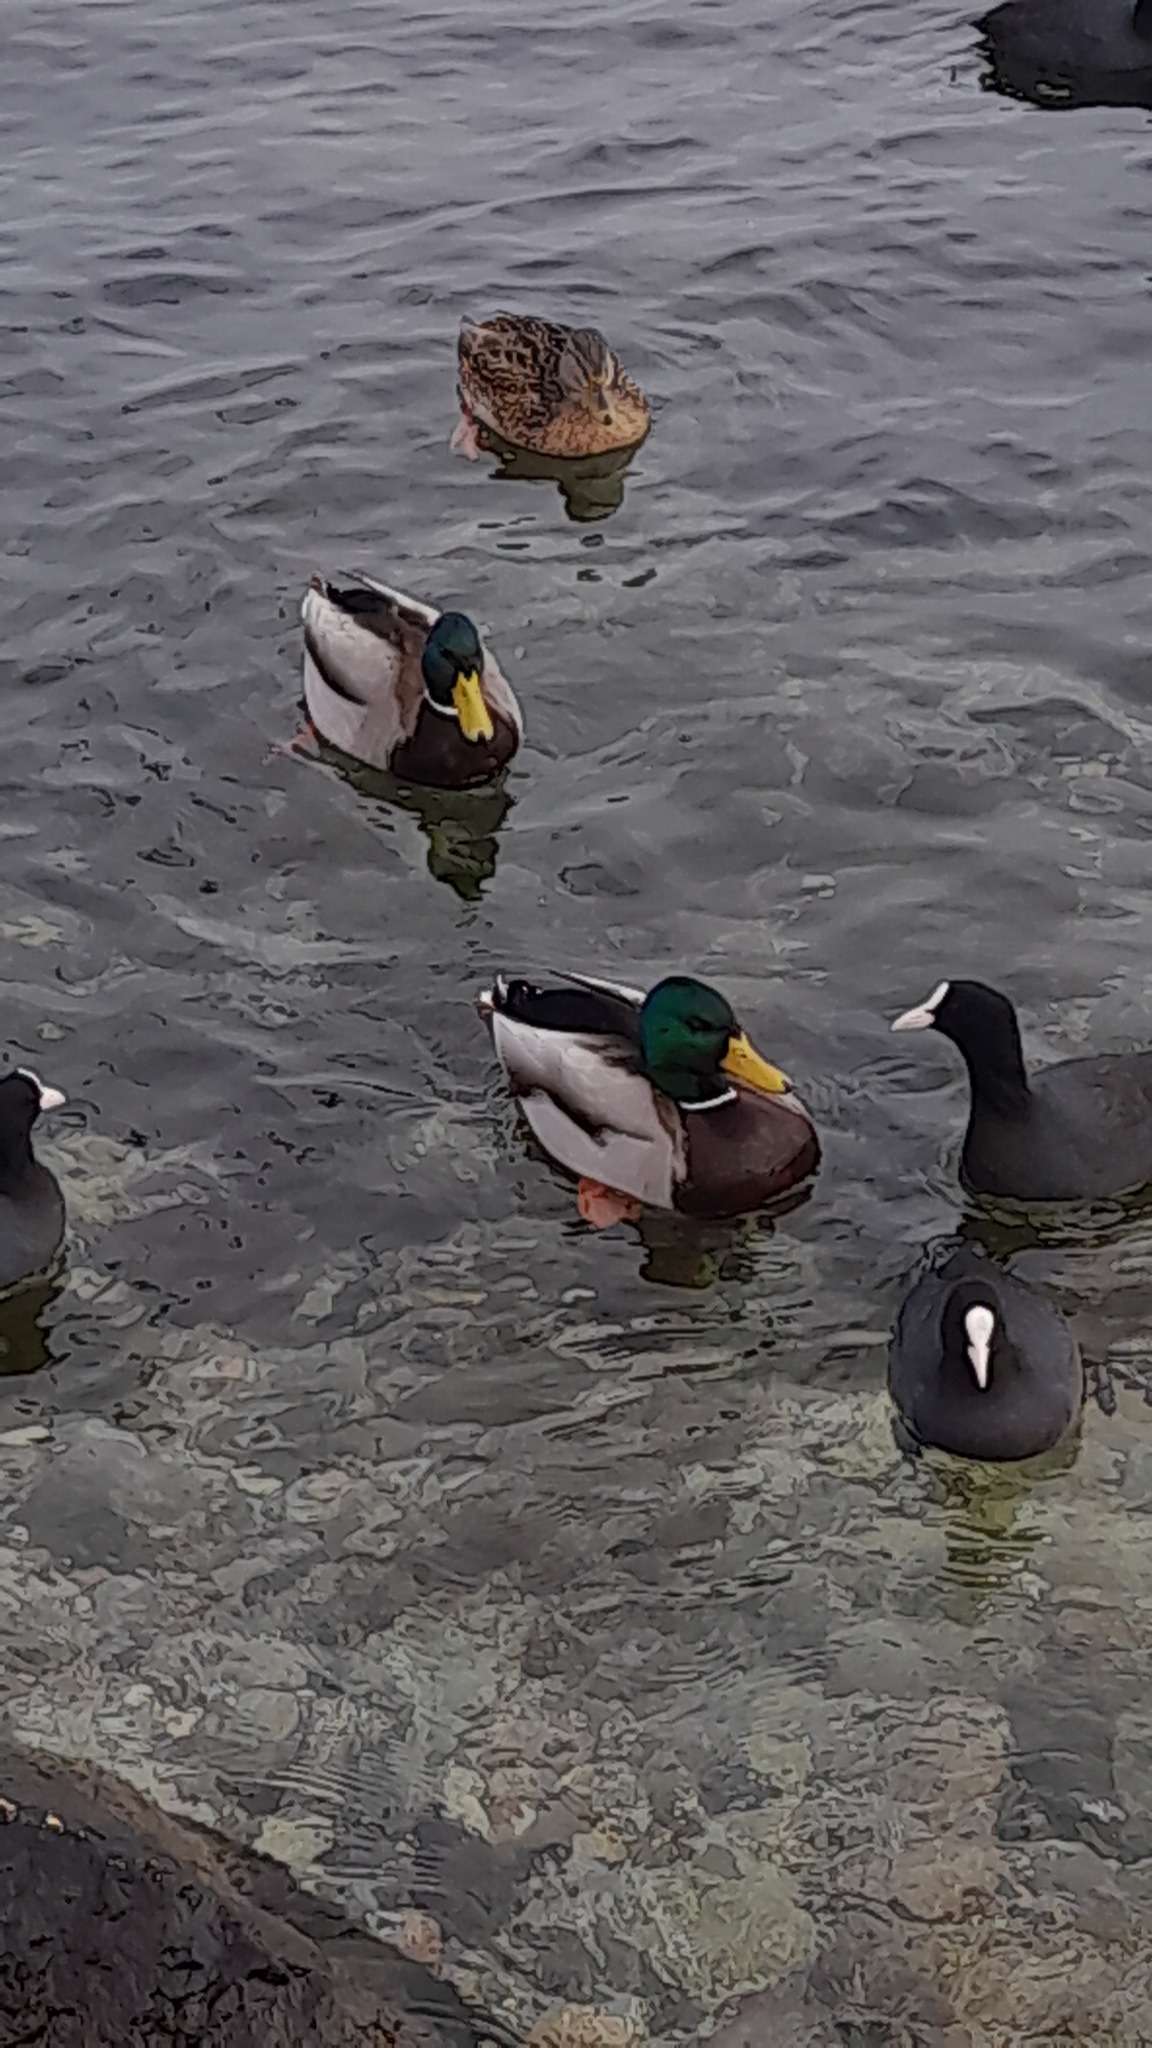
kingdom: Animalia
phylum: Chordata
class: Aves
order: Anseriformes
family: Anatidae
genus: Anas
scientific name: Anas platyrhynchos
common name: Mallard
